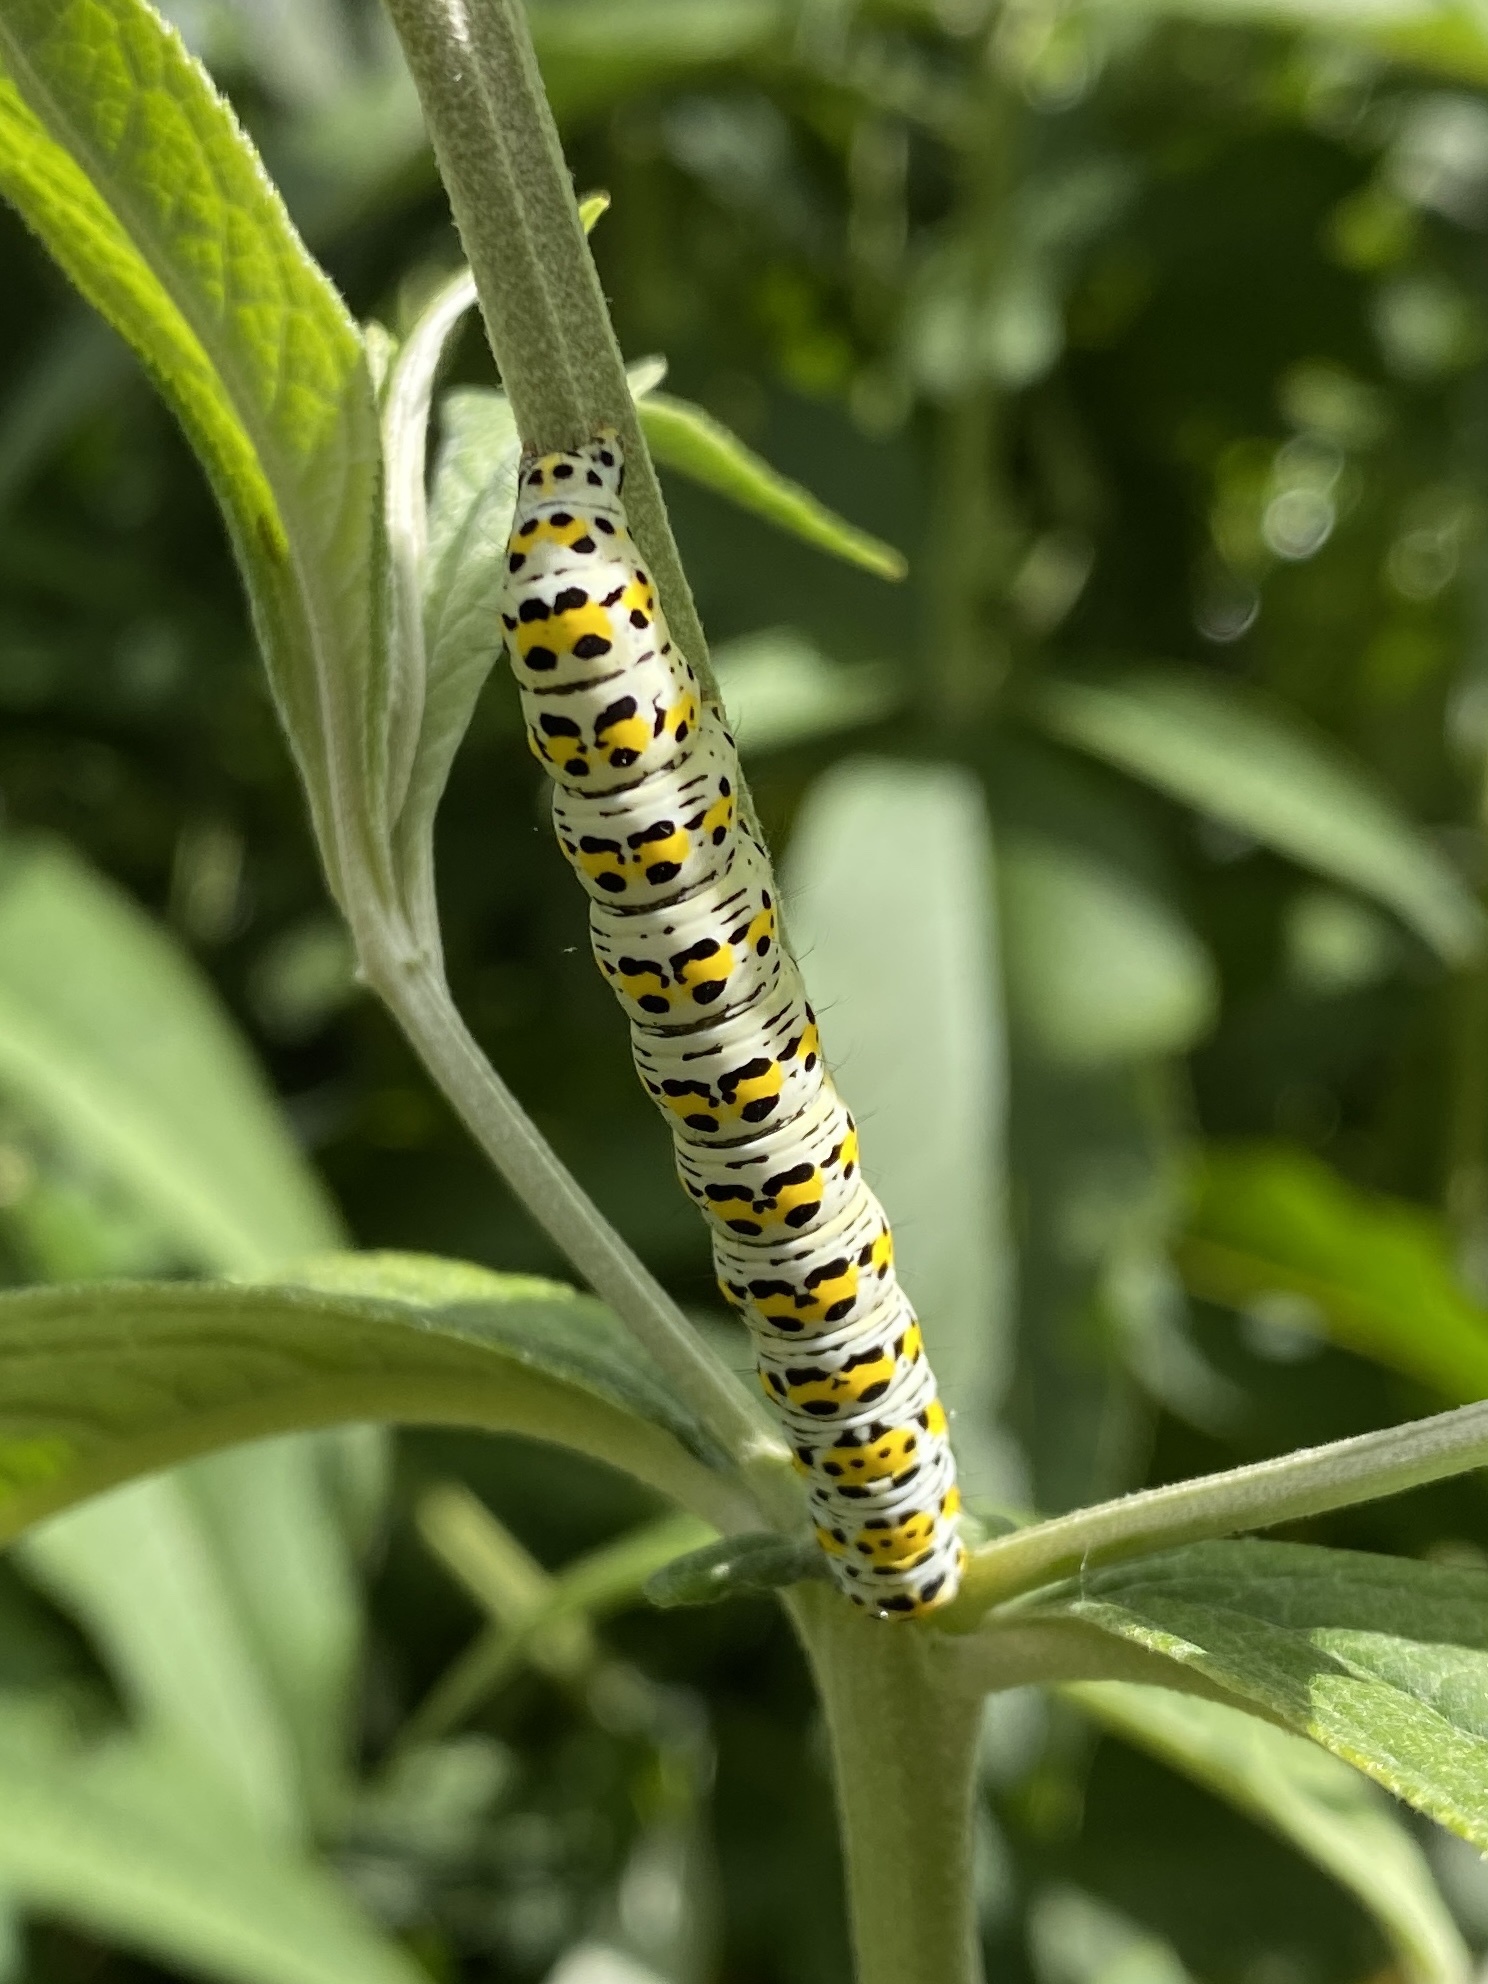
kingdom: Animalia
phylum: Arthropoda
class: Insecta
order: Lepidoptera
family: Noctuidae
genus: Cucullia
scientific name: Cucullia verbasci
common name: Mullein
